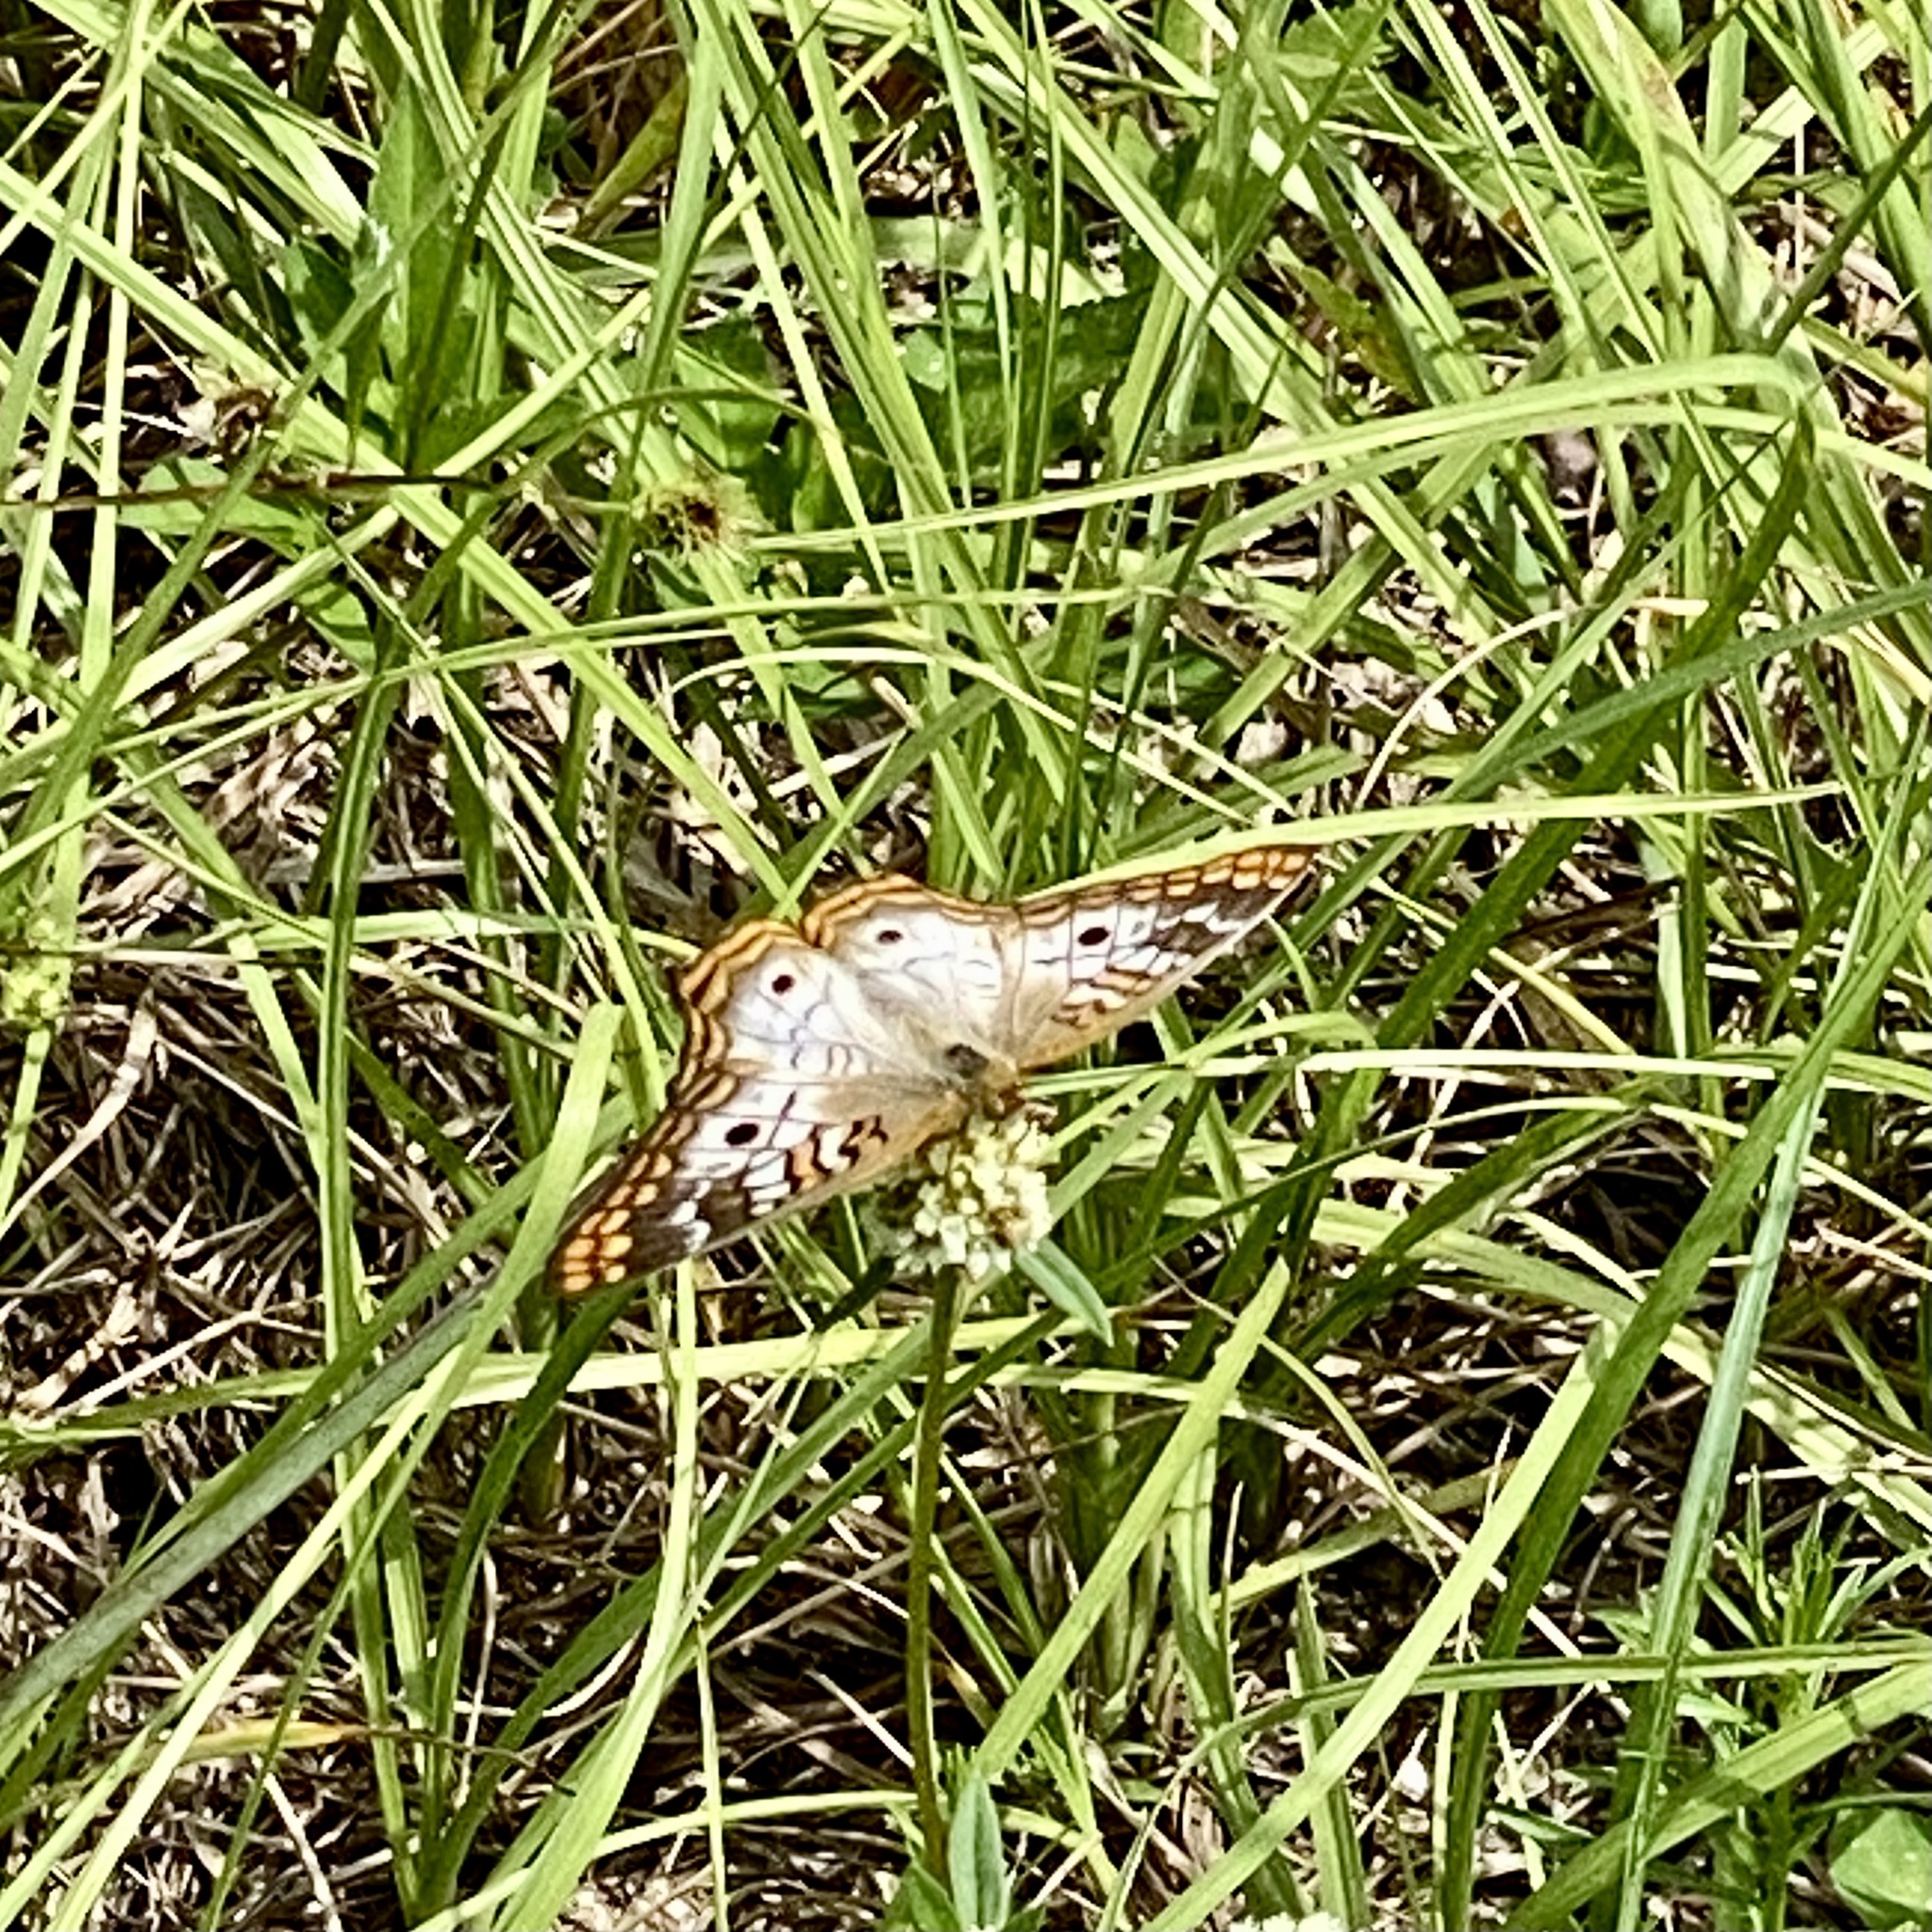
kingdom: Animalia
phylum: Arthropoda
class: Insecta
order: Lepidoptera
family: Nymphalidae
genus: Anartia
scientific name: Anartia jatrophae
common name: White peacock
